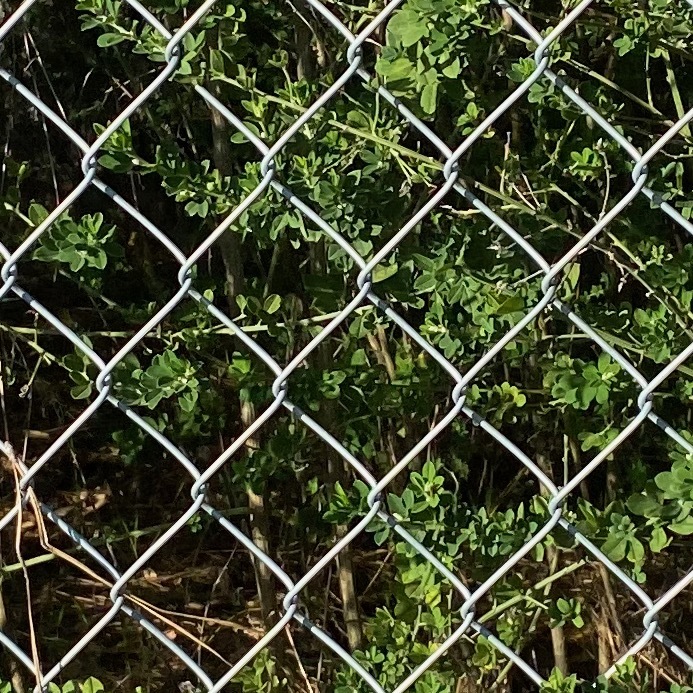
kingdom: Plantae
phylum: Tracheophyta
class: Magnoliopsida
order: Fabales
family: Fabaceae
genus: Genista
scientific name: Genista monspessulana
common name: Montpellier broom
